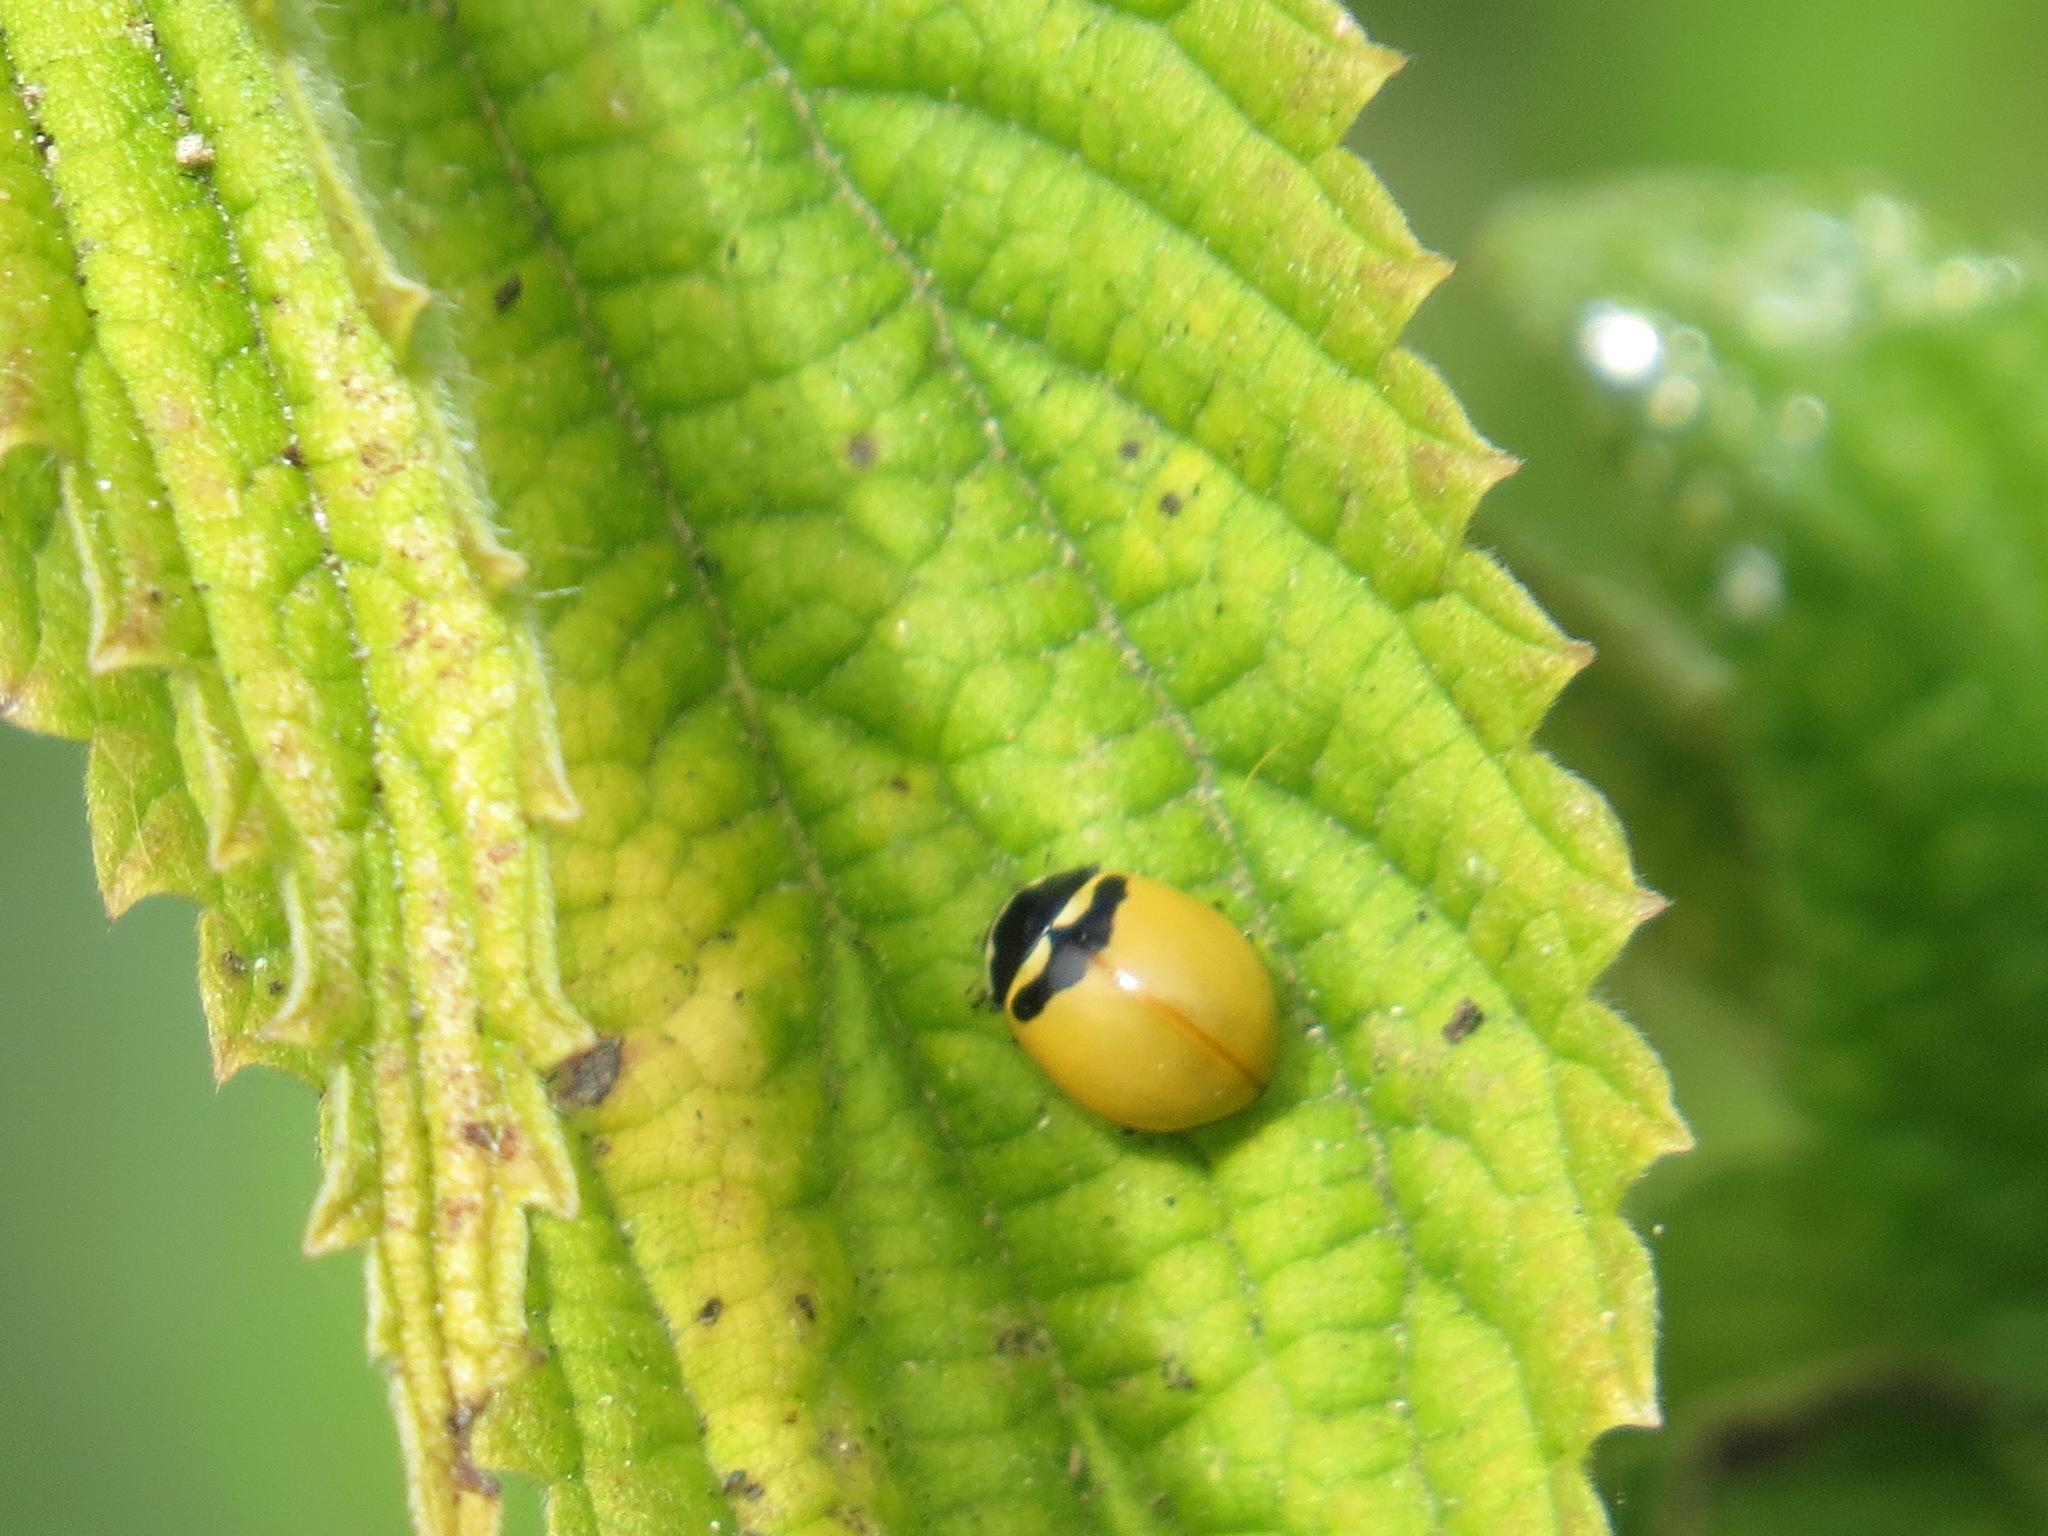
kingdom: Animalia
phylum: Arthropoda
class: Insecta
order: Coleoptera
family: Coccinellidae
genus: Coccinella
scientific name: Coccinella trifasciata
